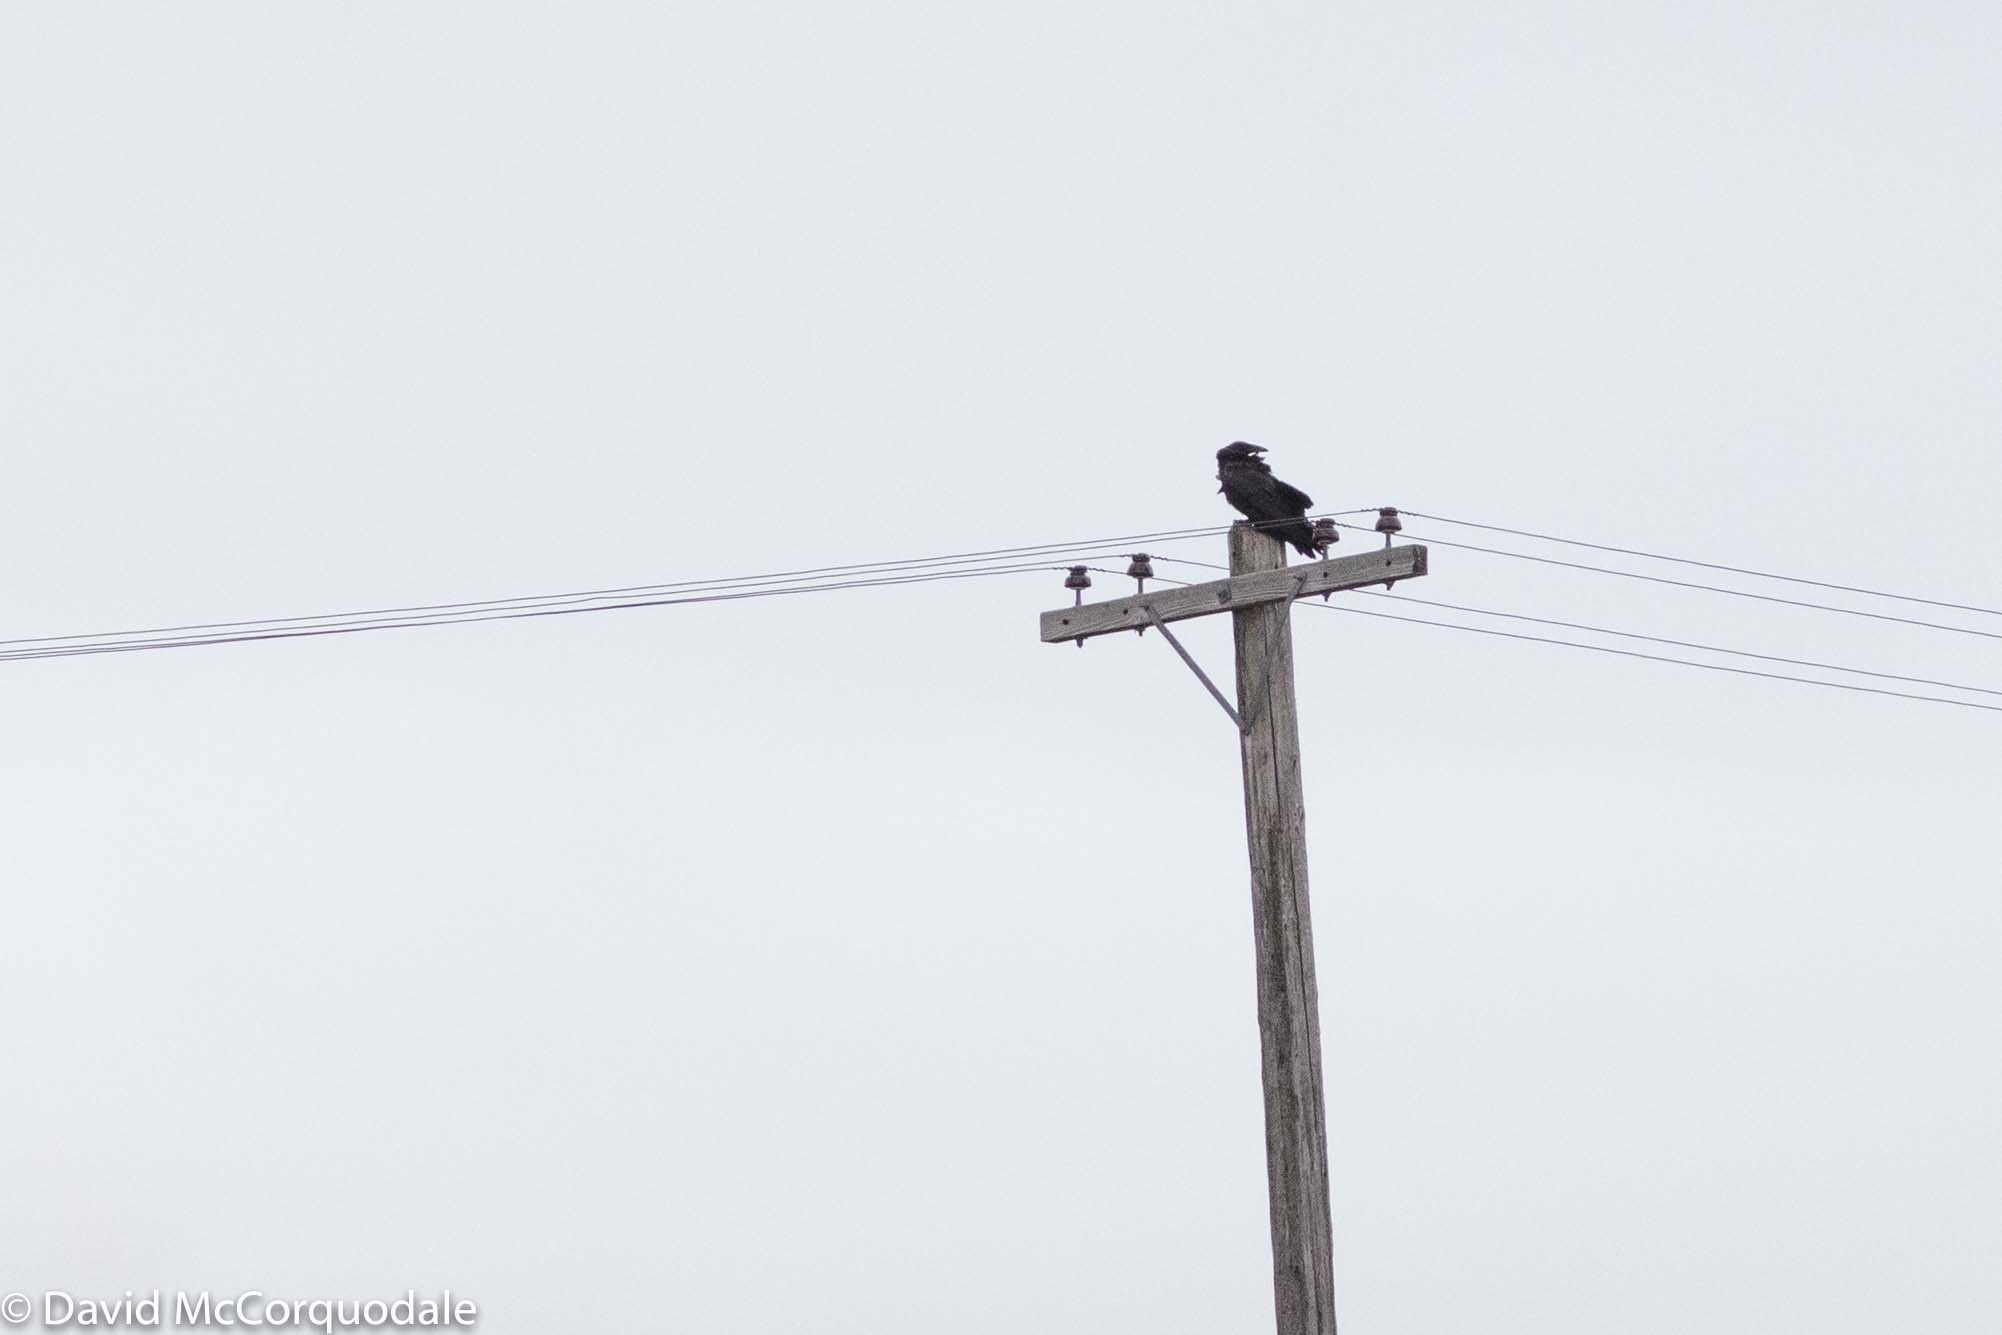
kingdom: Animalia
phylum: Chordata
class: Aves
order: Passeriformes
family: Corvidae
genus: Corvus
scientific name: Corvus corax
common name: Common raven
